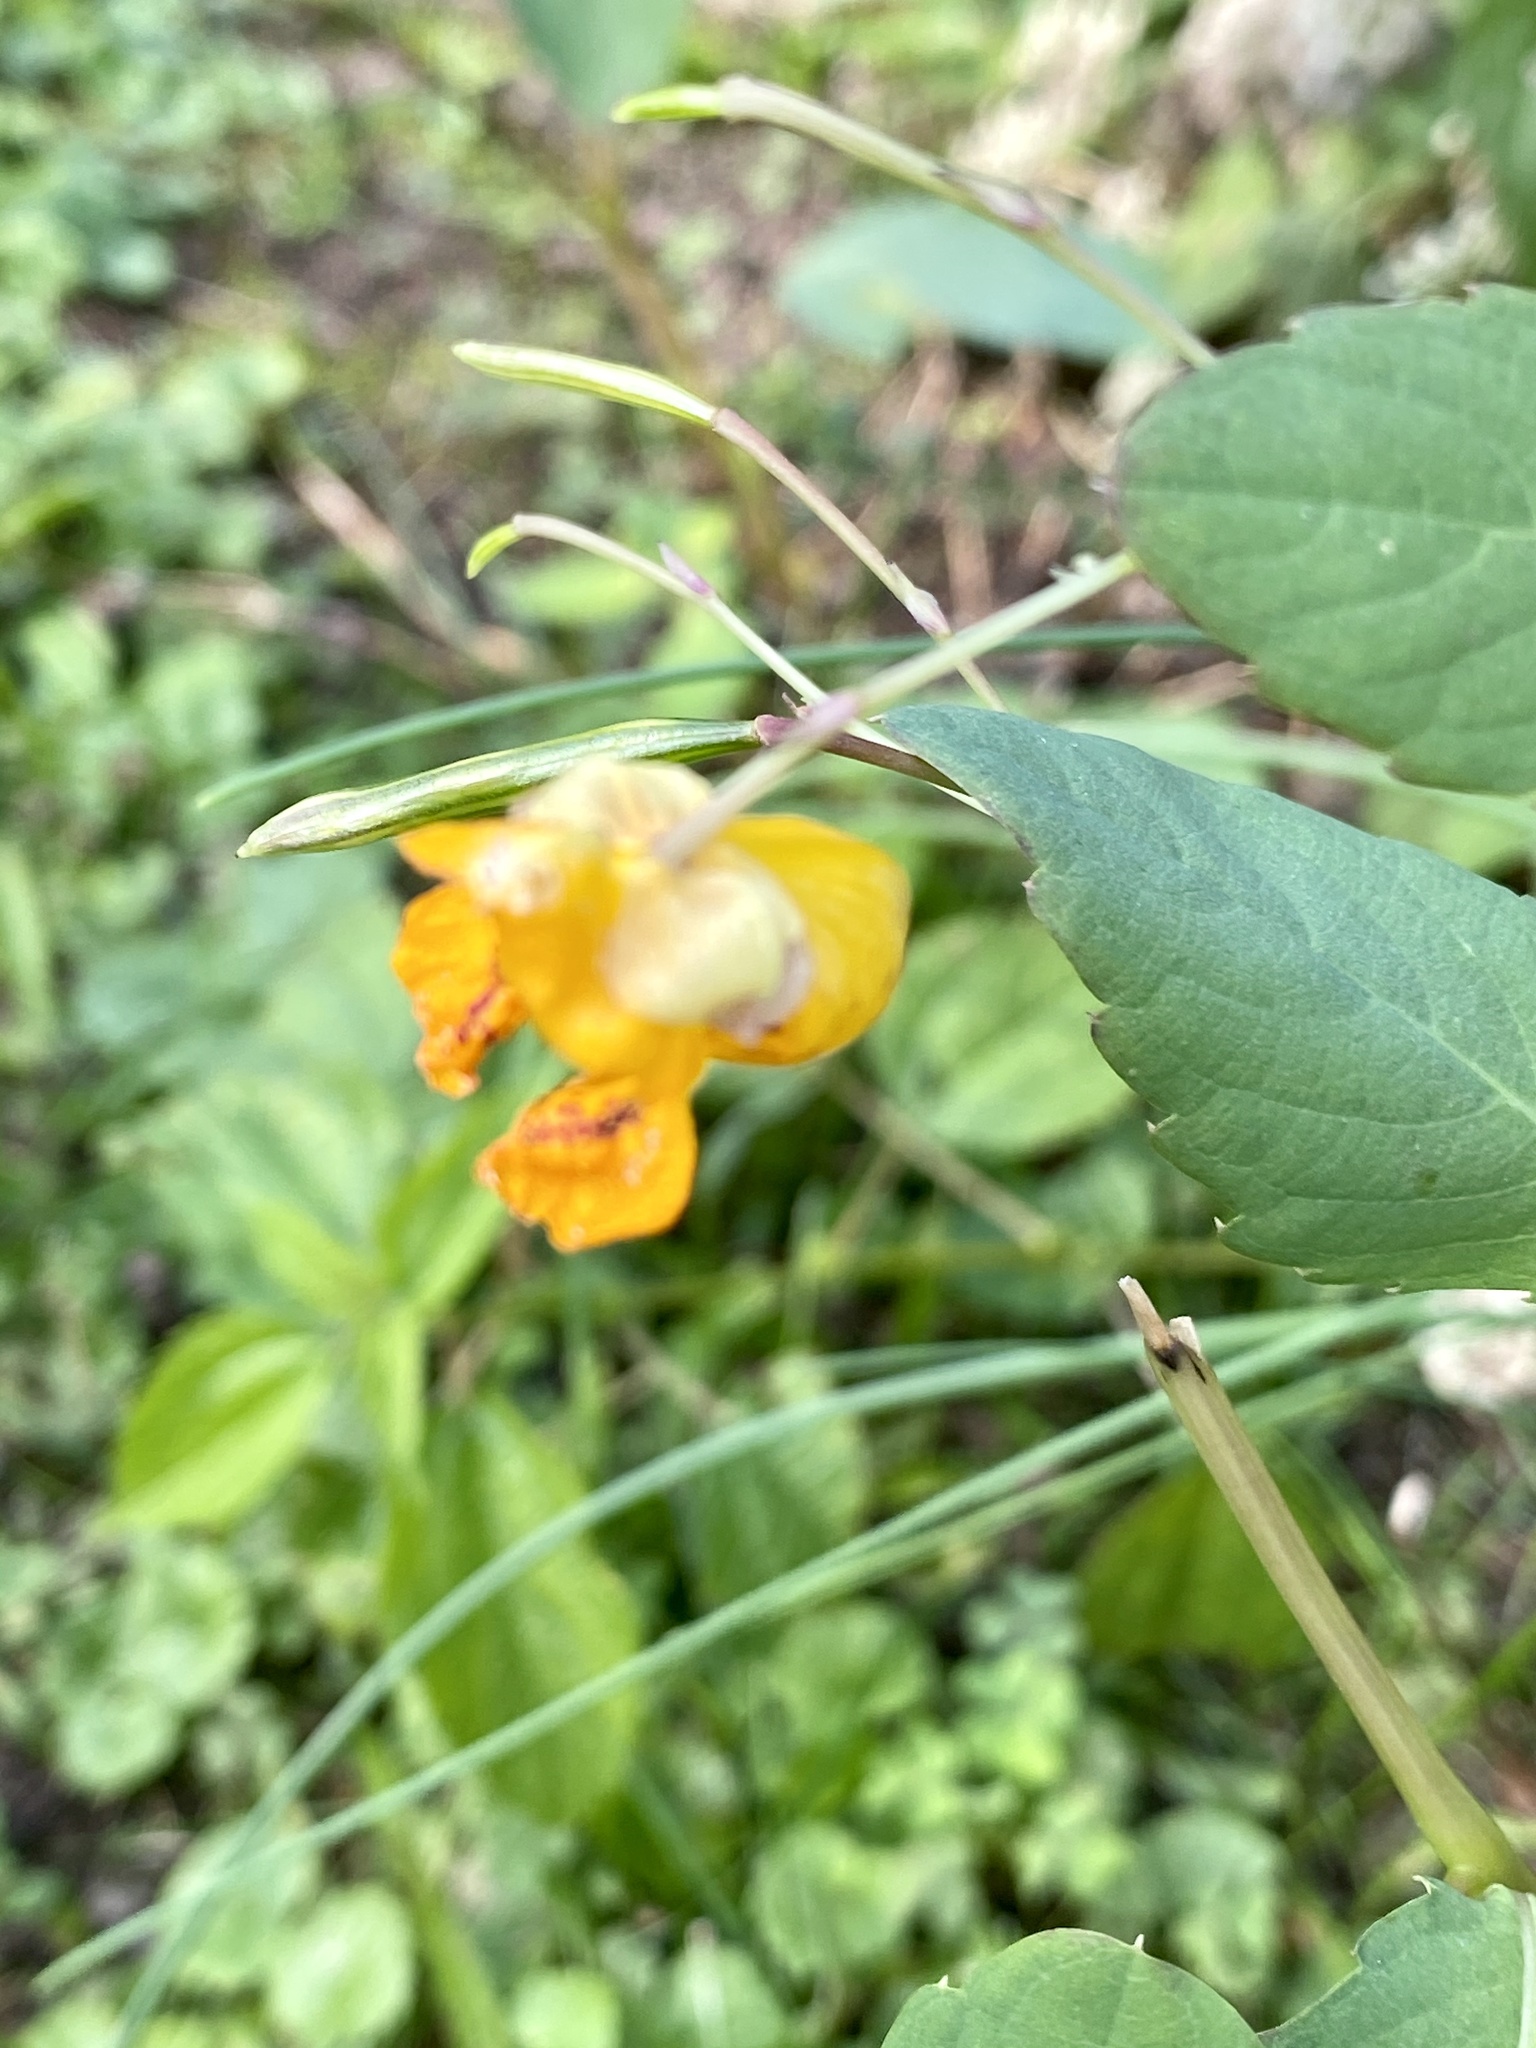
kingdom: Plantae
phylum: Tracheophyta
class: Magnoliopsida
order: Ericales
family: Balsaminaceae
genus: Impatiens
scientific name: Impatiens capensis
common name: Orange balsam
